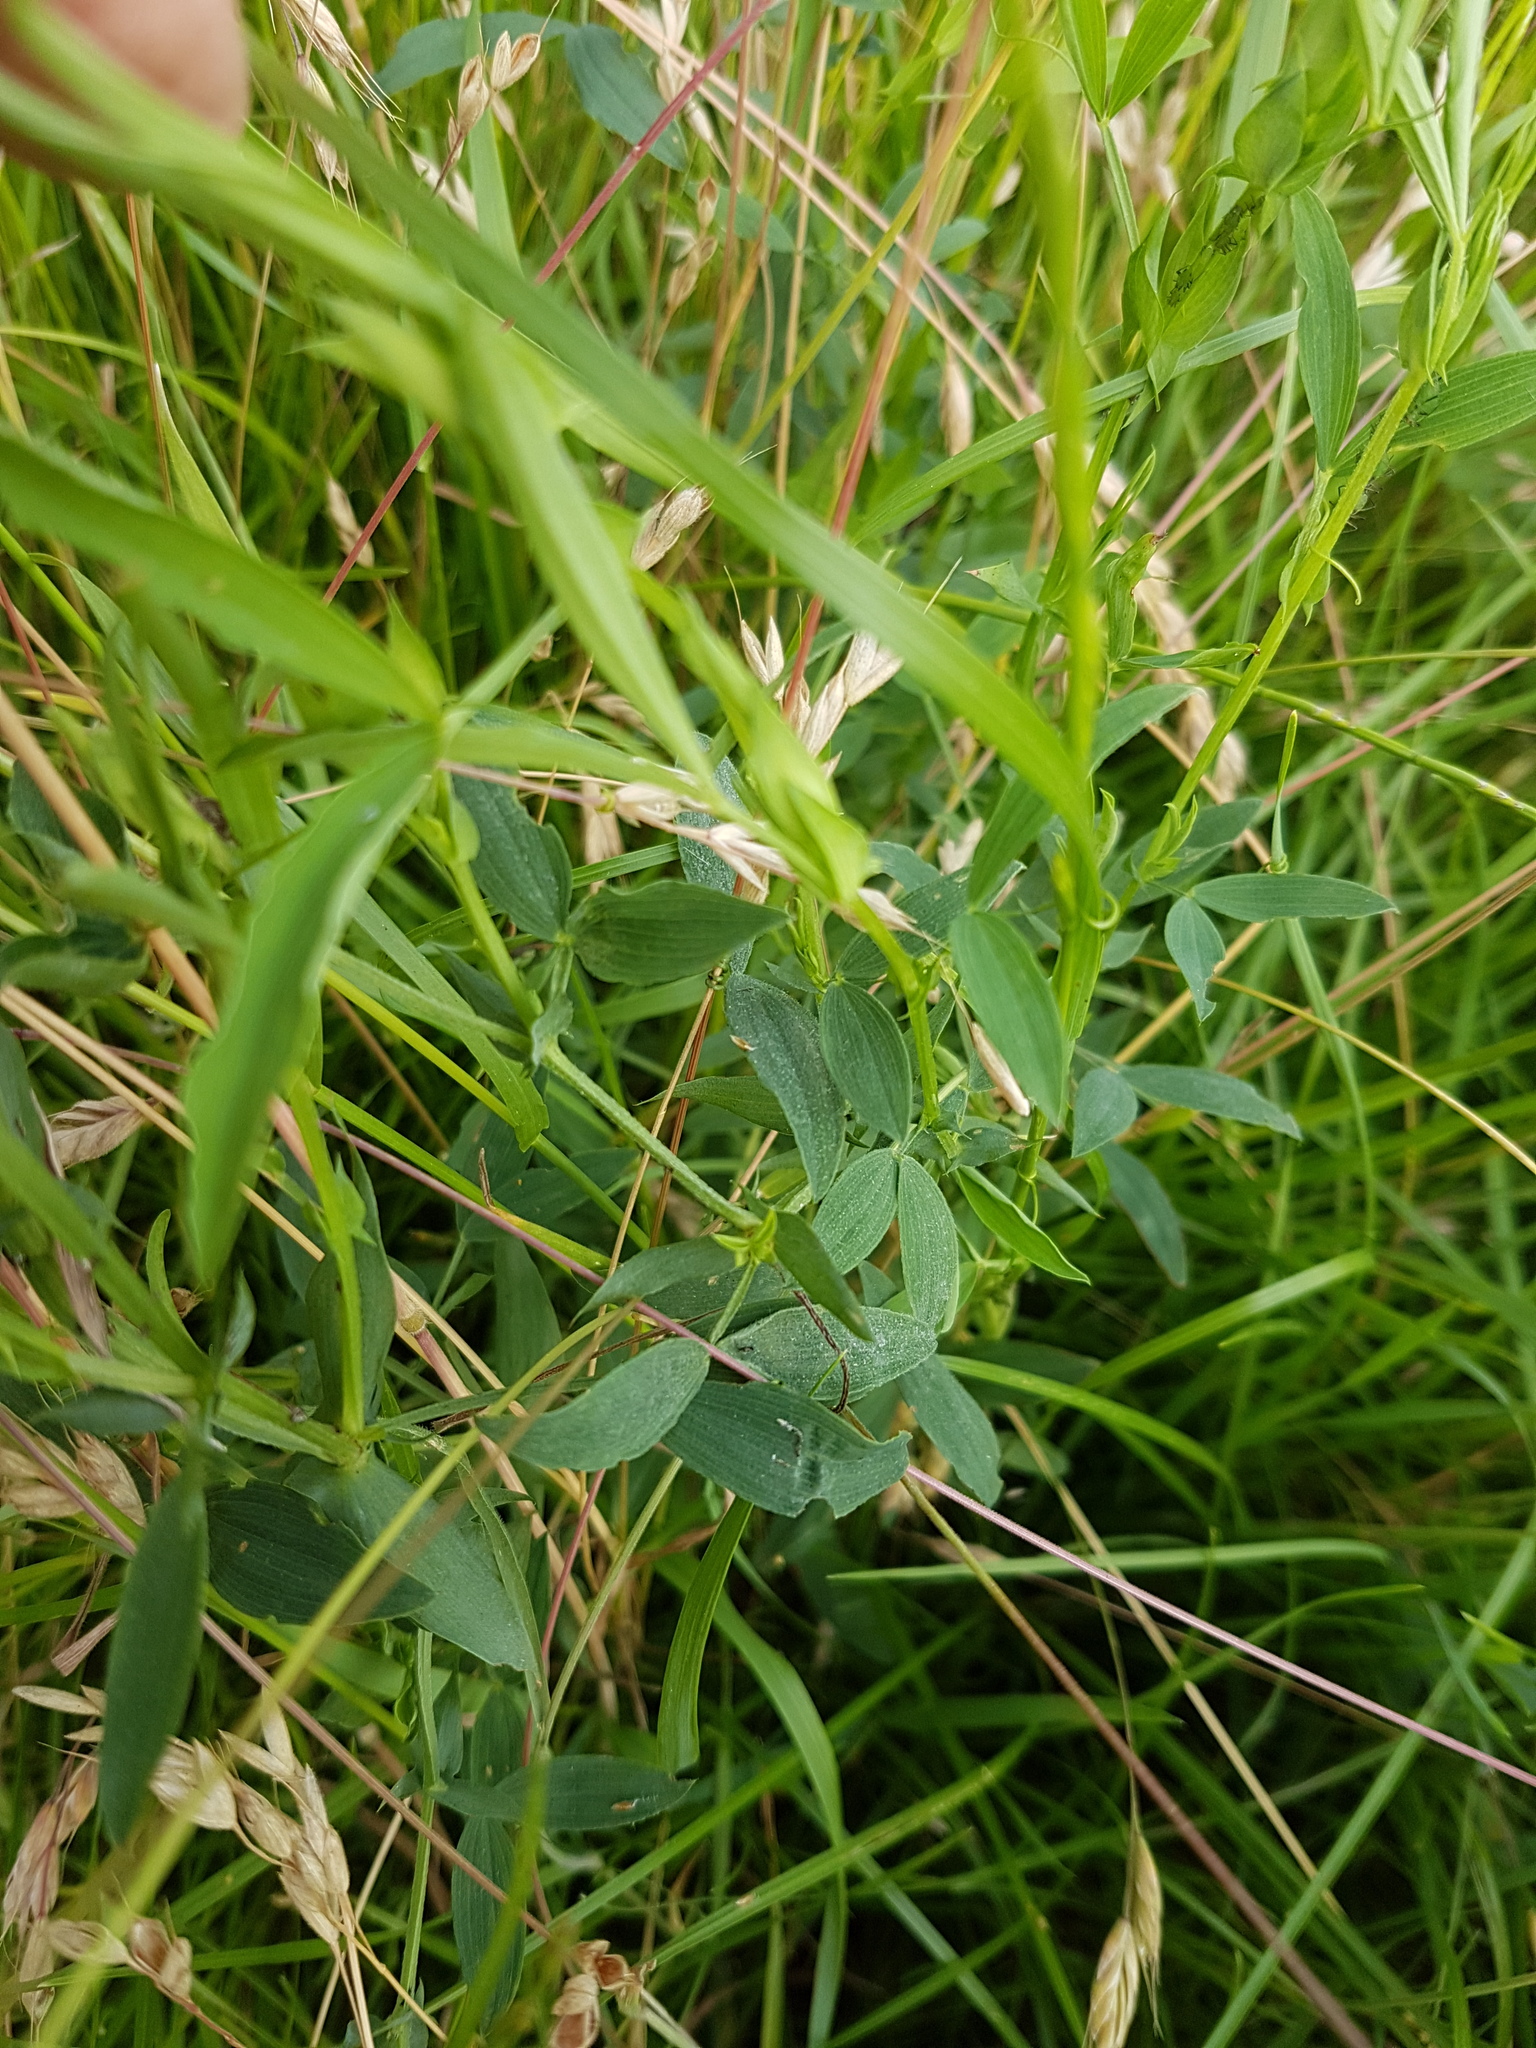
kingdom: Plantae
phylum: Tracheophyta
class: Magnoliopsida
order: Fabales
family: Fabaceae
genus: Lathyrus
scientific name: Lathyrus pratensis
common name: Meadow vetchling
